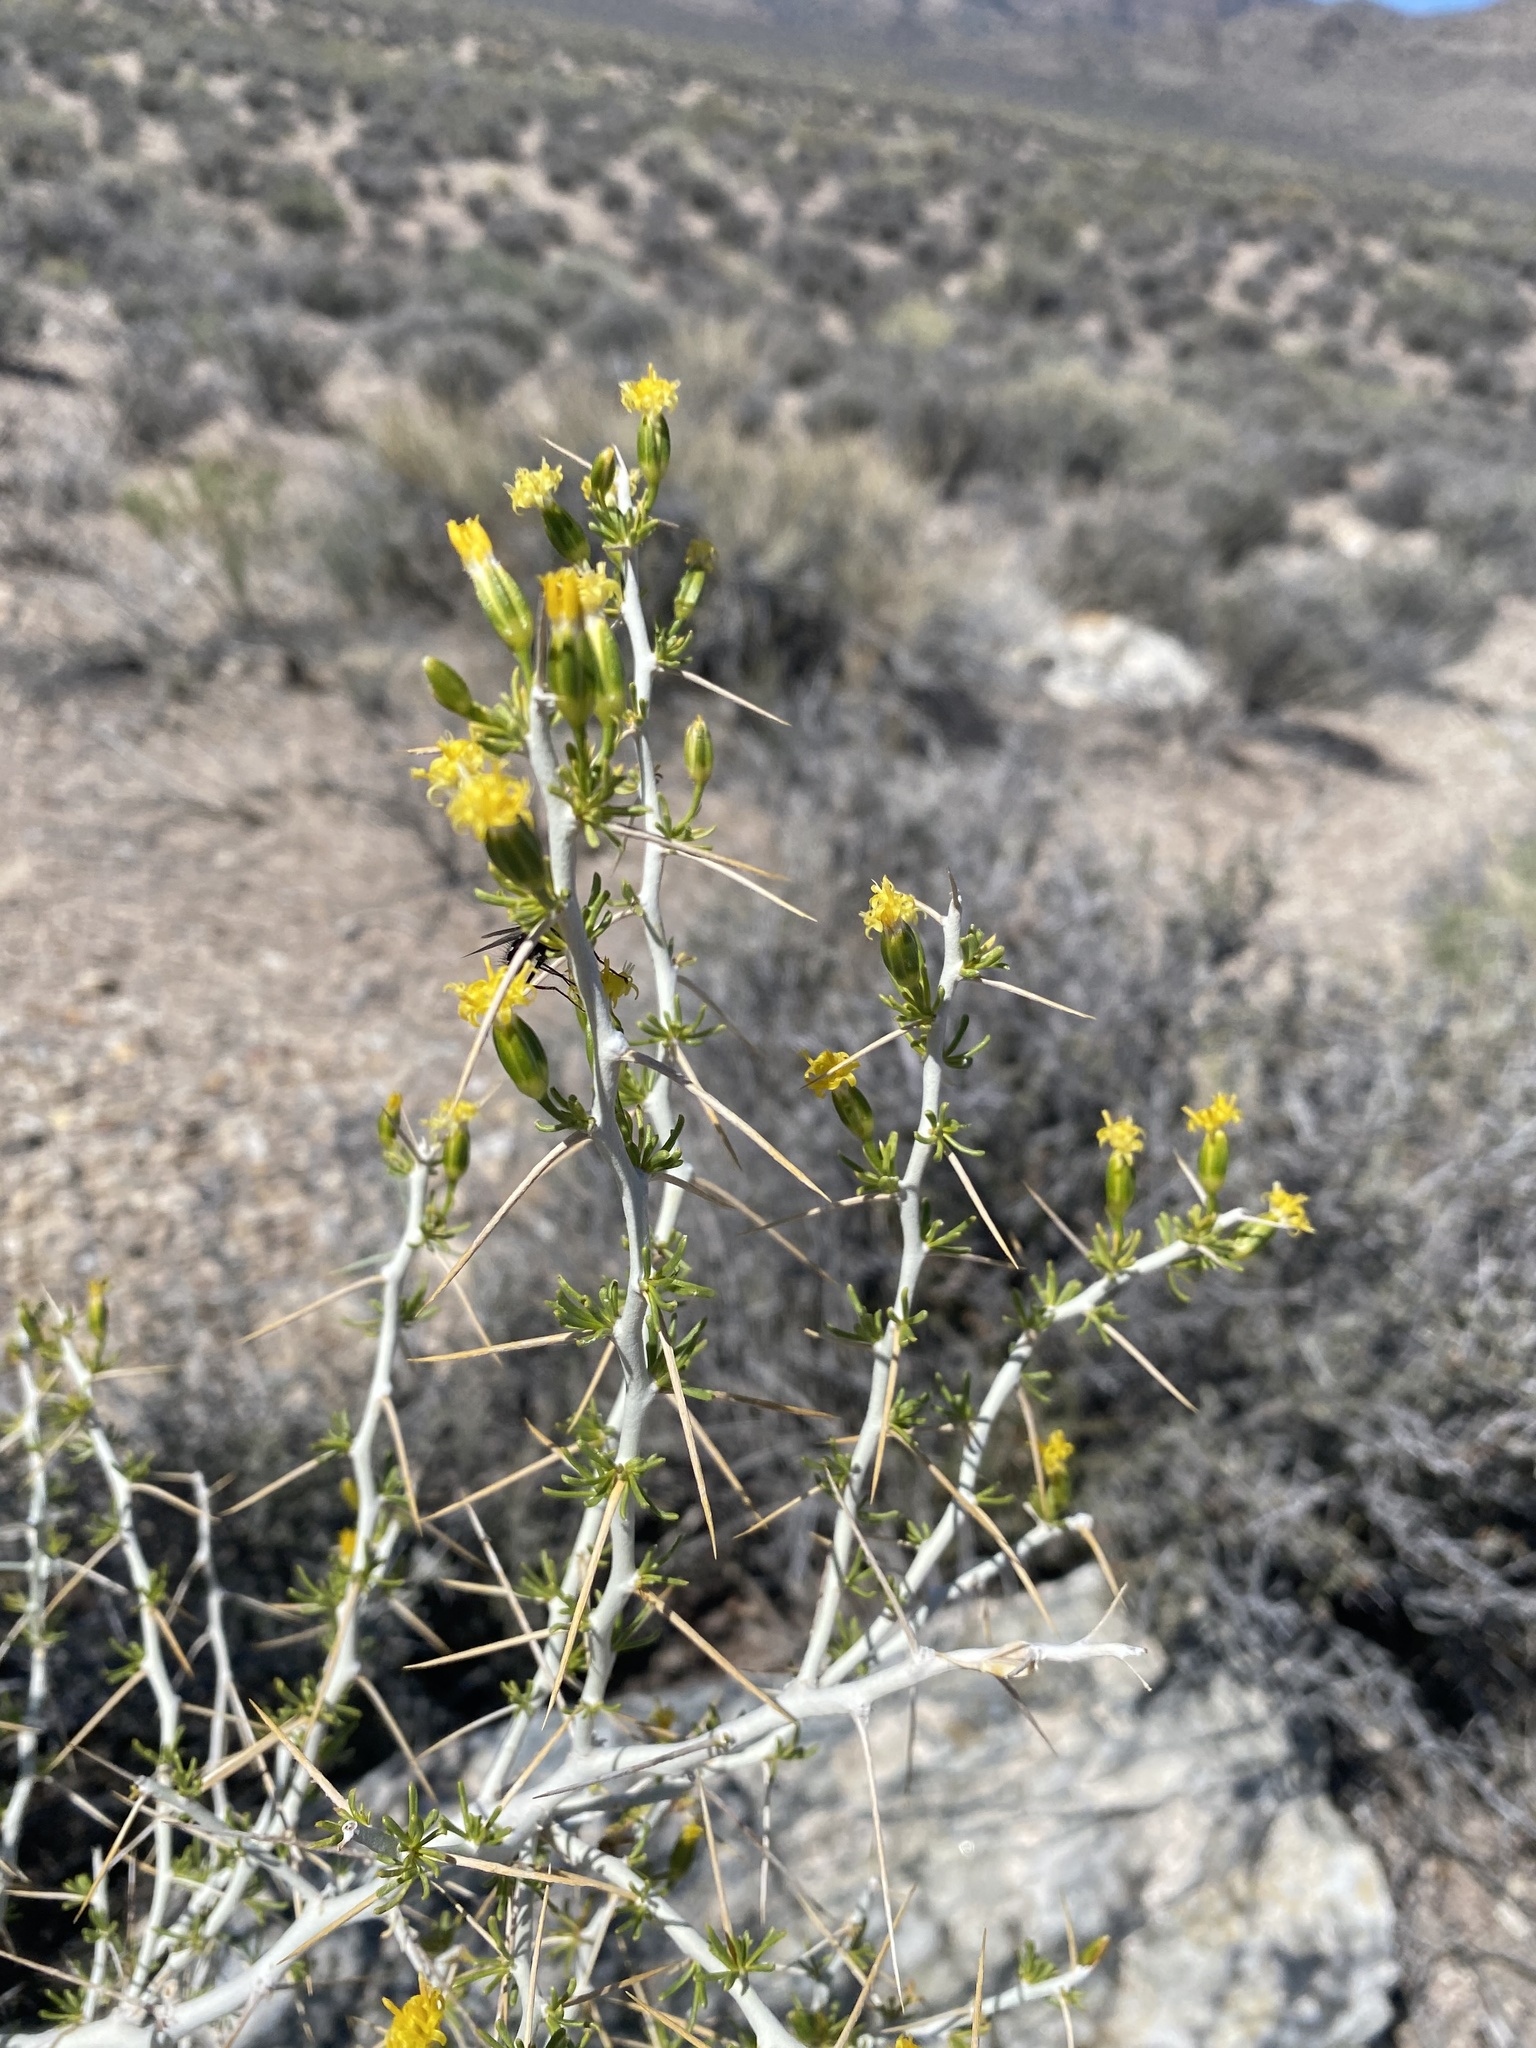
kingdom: Plantae
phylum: Tracheophyta
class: Magnoliopsida
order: Asterales
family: Asteraceae
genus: Tetradymia
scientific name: Tetradymia axillaris
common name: Long-spine horsebrush
